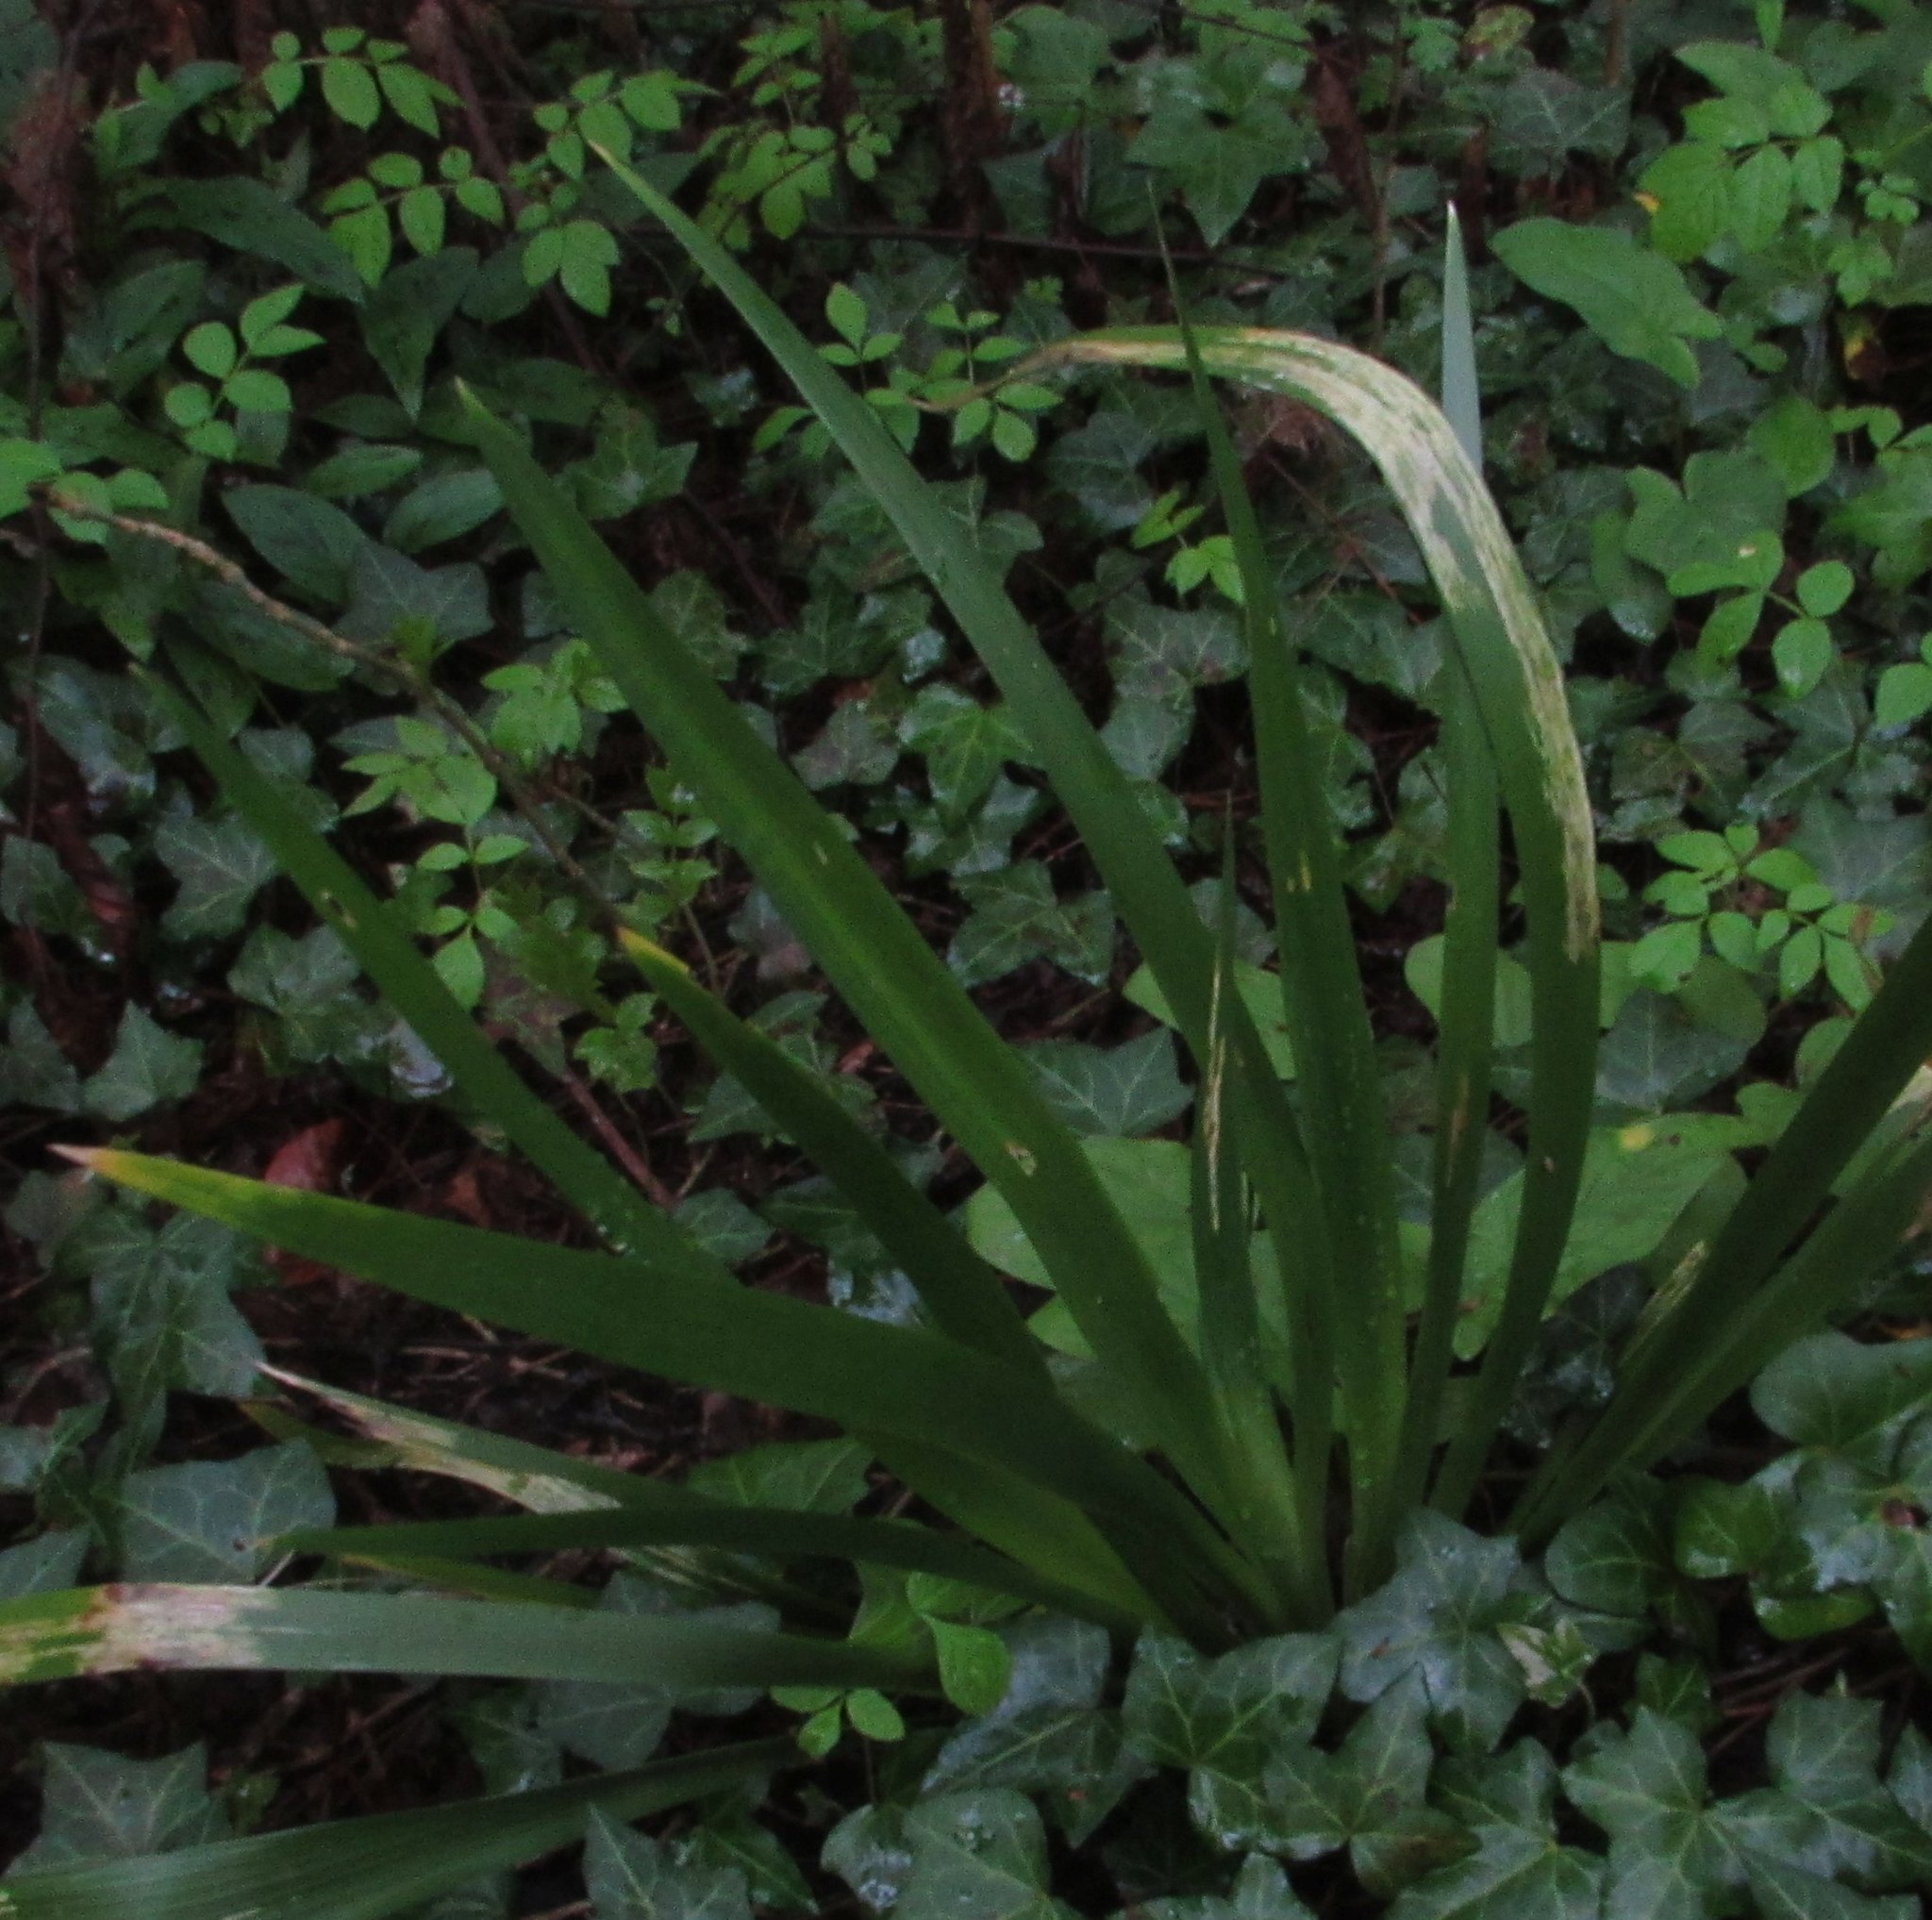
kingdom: Plantae
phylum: Tracheophyta
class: Liliopsida
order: Asparagales
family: Iridaceae
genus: Iris
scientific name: Iris foetidissima
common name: Stinking iris
